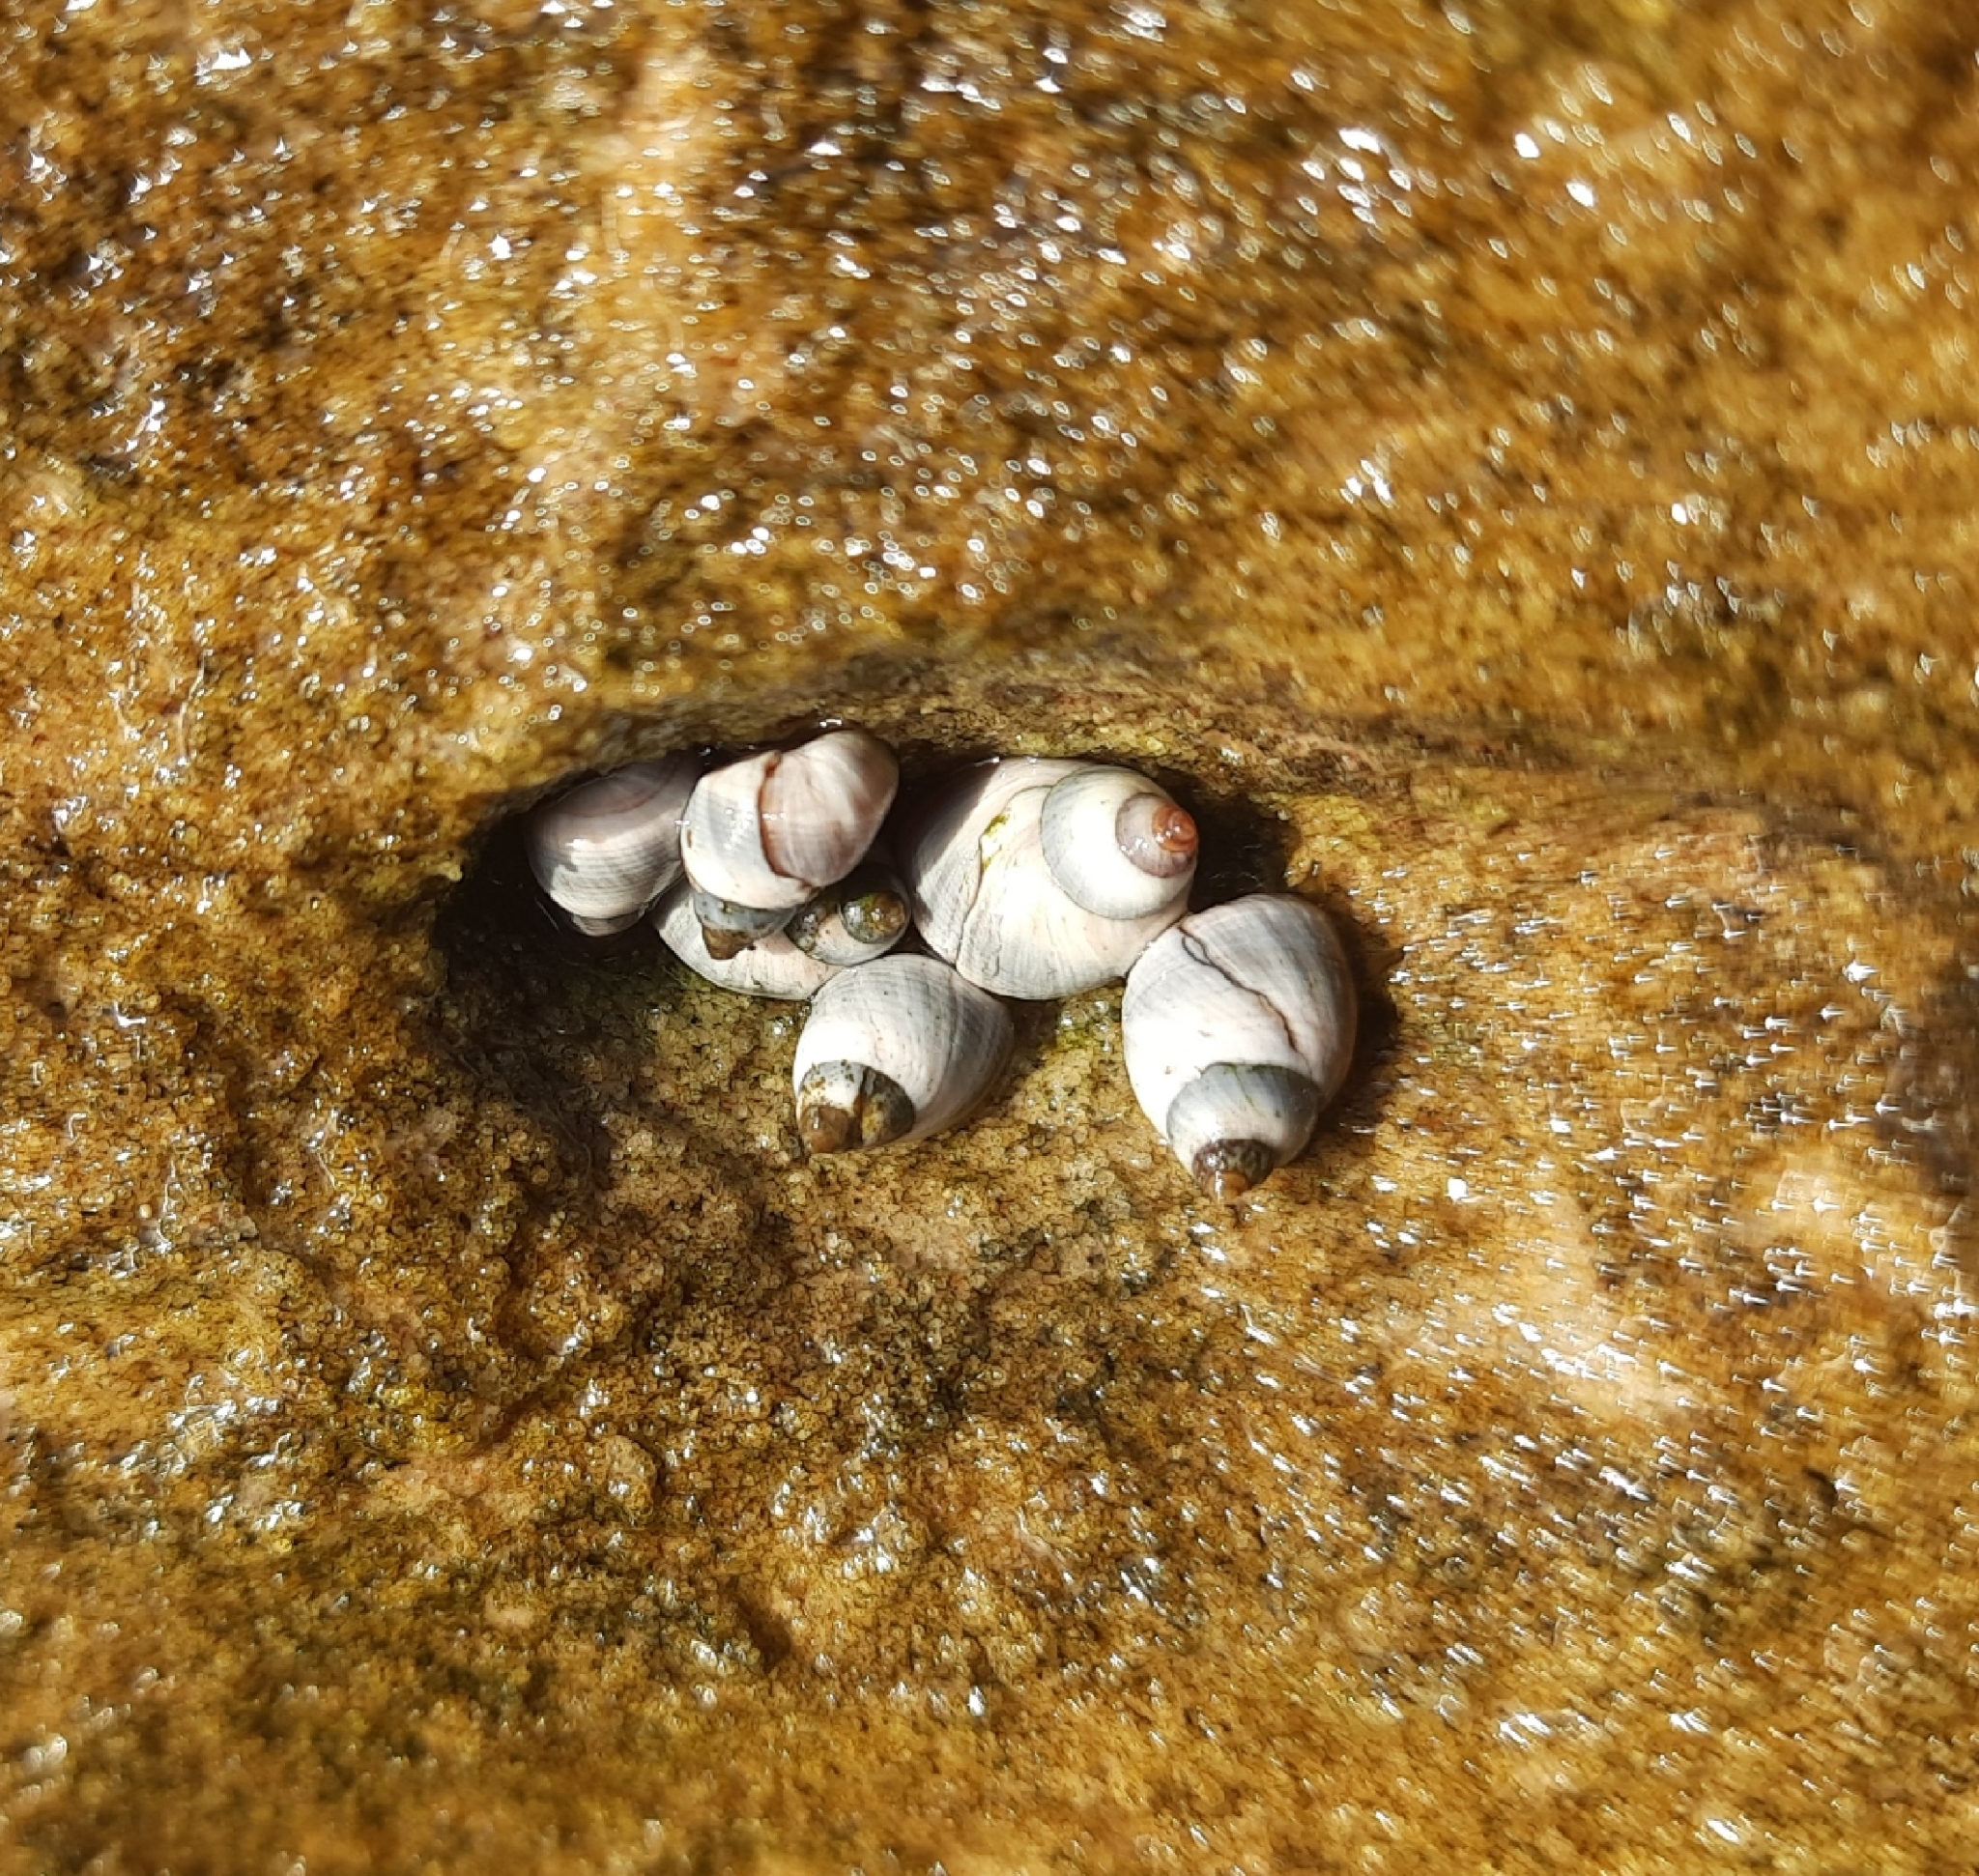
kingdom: Animalia
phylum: Mollusca
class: Gastropoda
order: Littorinimorpha
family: Littorinidae
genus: Austrolittorina
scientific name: Austrolittorina unifasciata
